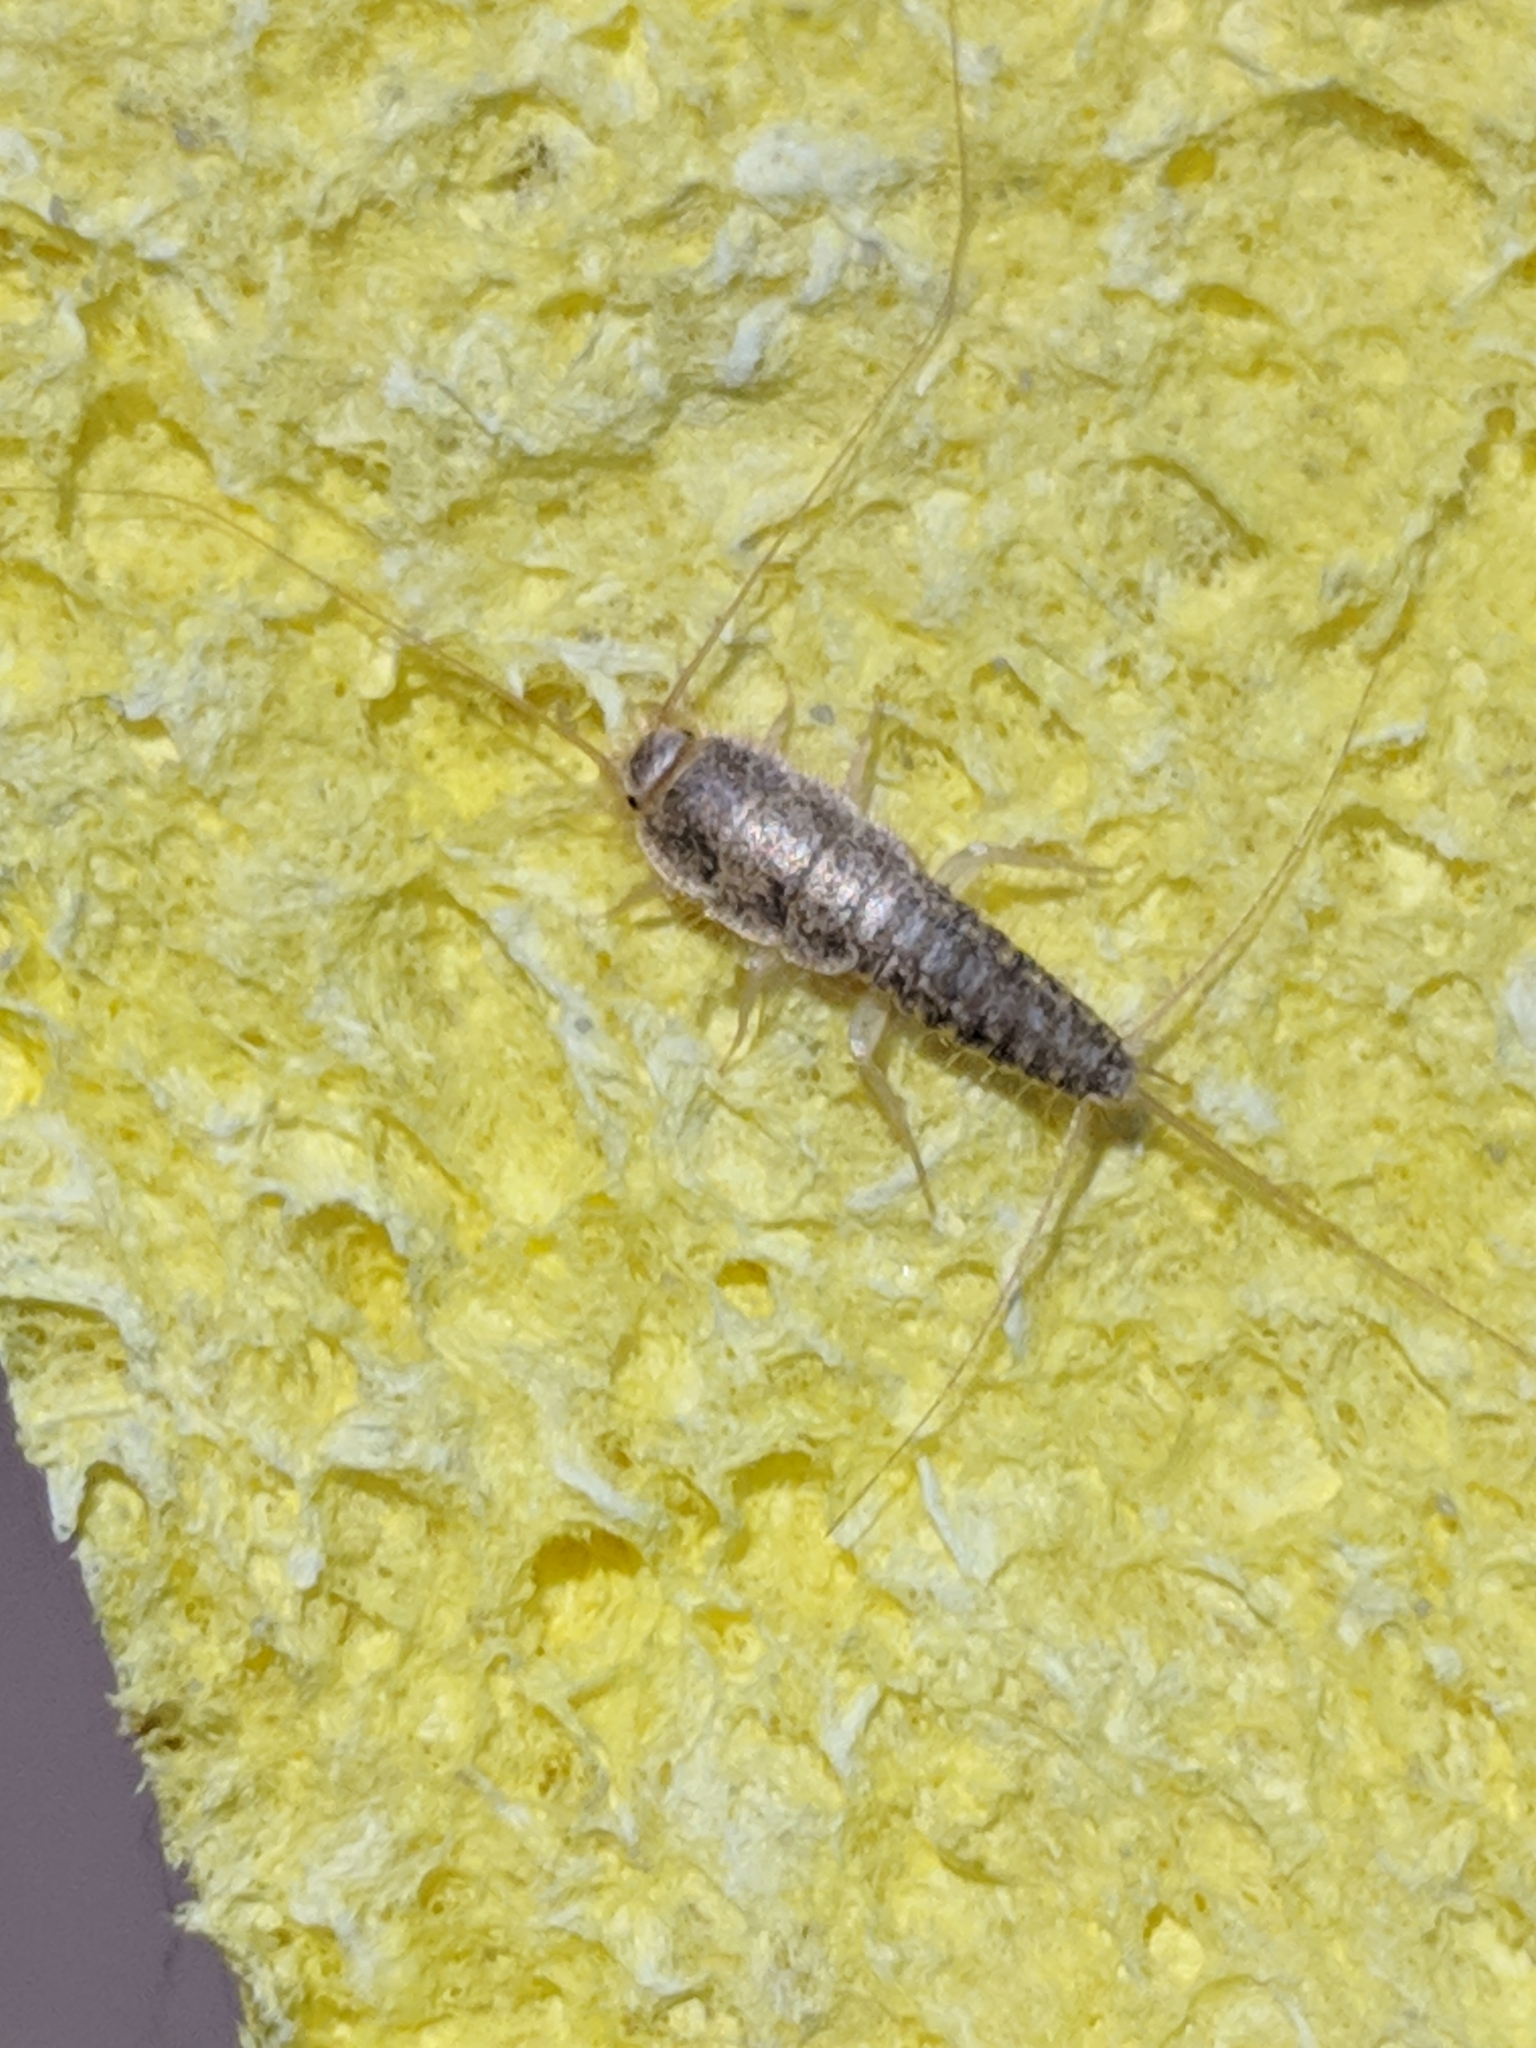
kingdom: Animalia
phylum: Arthropoda
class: Insecta
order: Zygentoma
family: Lepismatidae
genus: Ctenolepisma
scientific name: Ctenolepisma longicaudatum
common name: Silverfish
